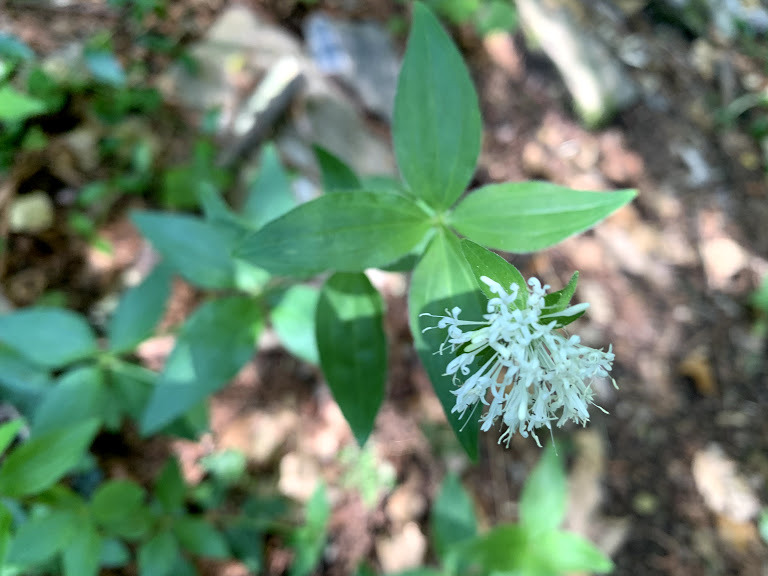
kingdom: Plantae
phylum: Tracheophyta
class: Magnoliopsida
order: Gentianales
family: Rubiaceae
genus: Asperula
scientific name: Asperula taurina
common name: Pink woodruff
